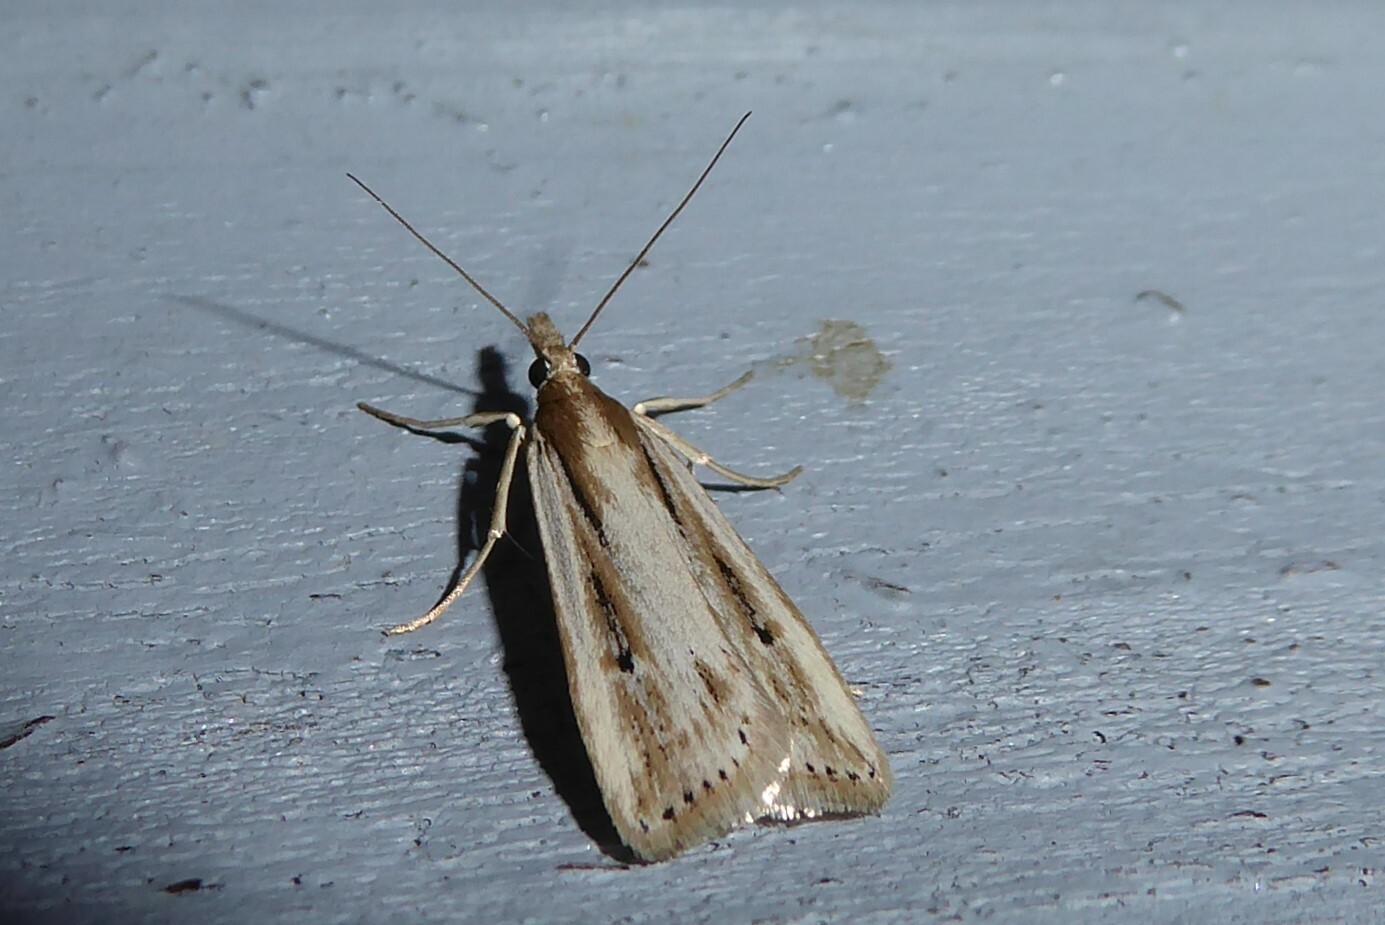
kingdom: Animalia
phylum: Arthropoda
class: Insecta
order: Lepidoptera
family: Crambidae
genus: Eudonia
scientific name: Eudonia sabulosella
